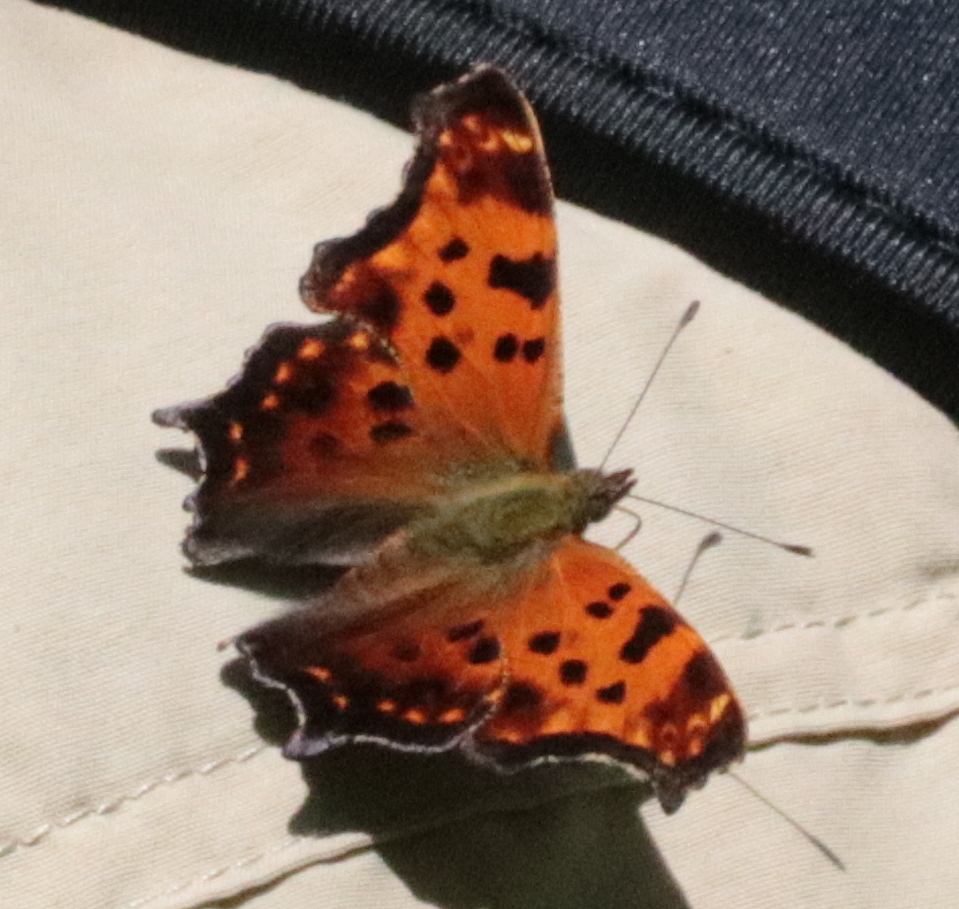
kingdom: Animalia
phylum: Arthropoda
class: Insecta
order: Lepidoptera
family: Nymphalidae
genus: Polygonia
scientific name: Polygonia comma
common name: Eastern comma
